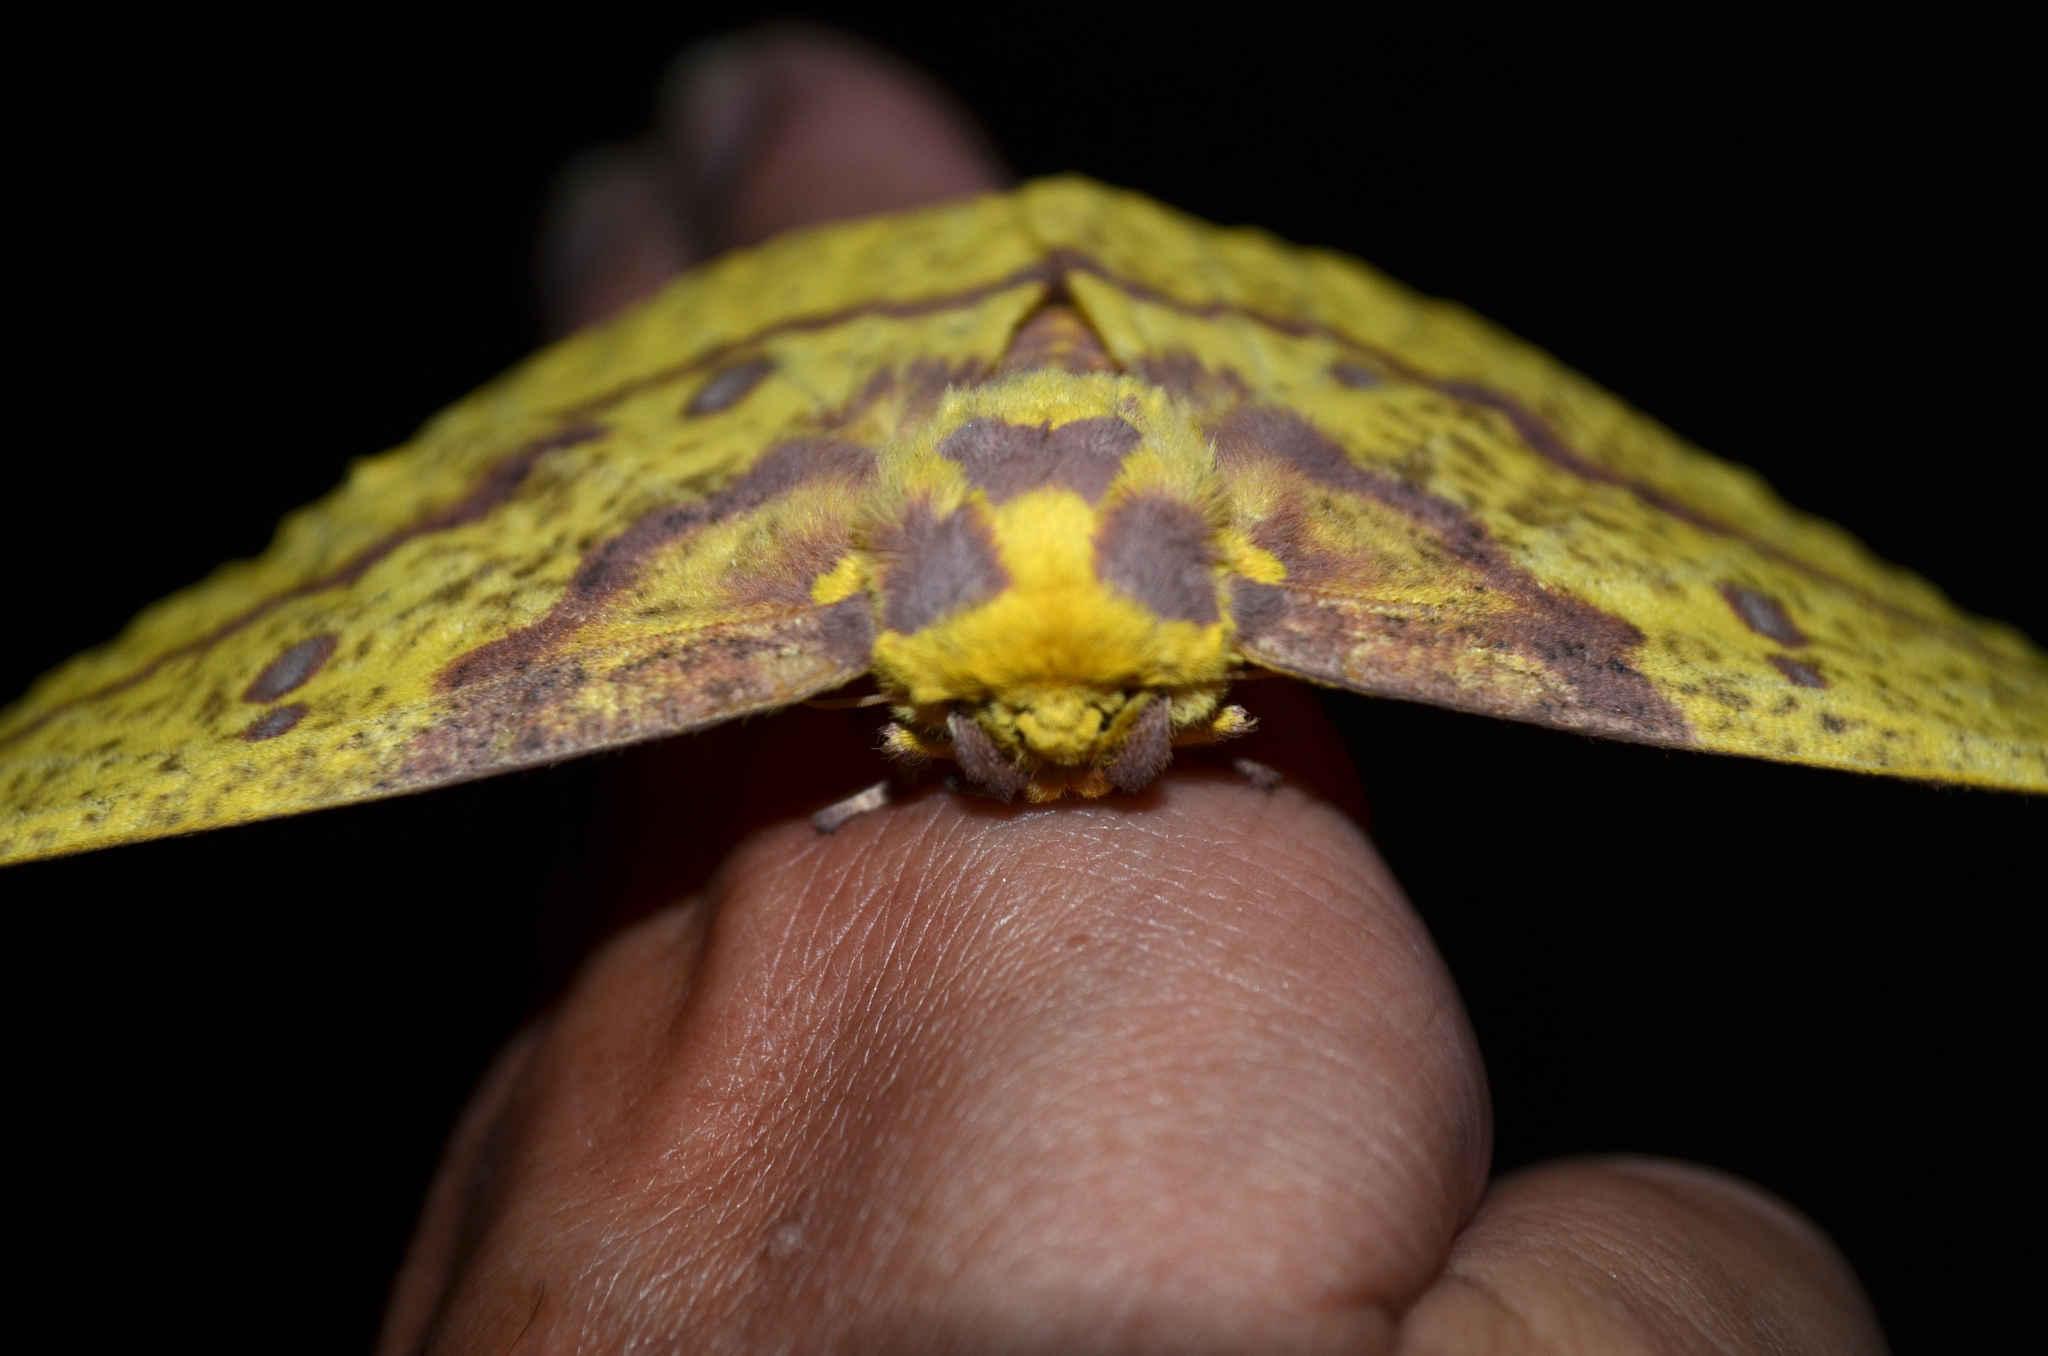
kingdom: Animalia
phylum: Arthropoda
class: Insecta
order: Lepidoptera
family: Saturniidae
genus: Eacles
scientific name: Eacles imperialis
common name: Imperial moth
